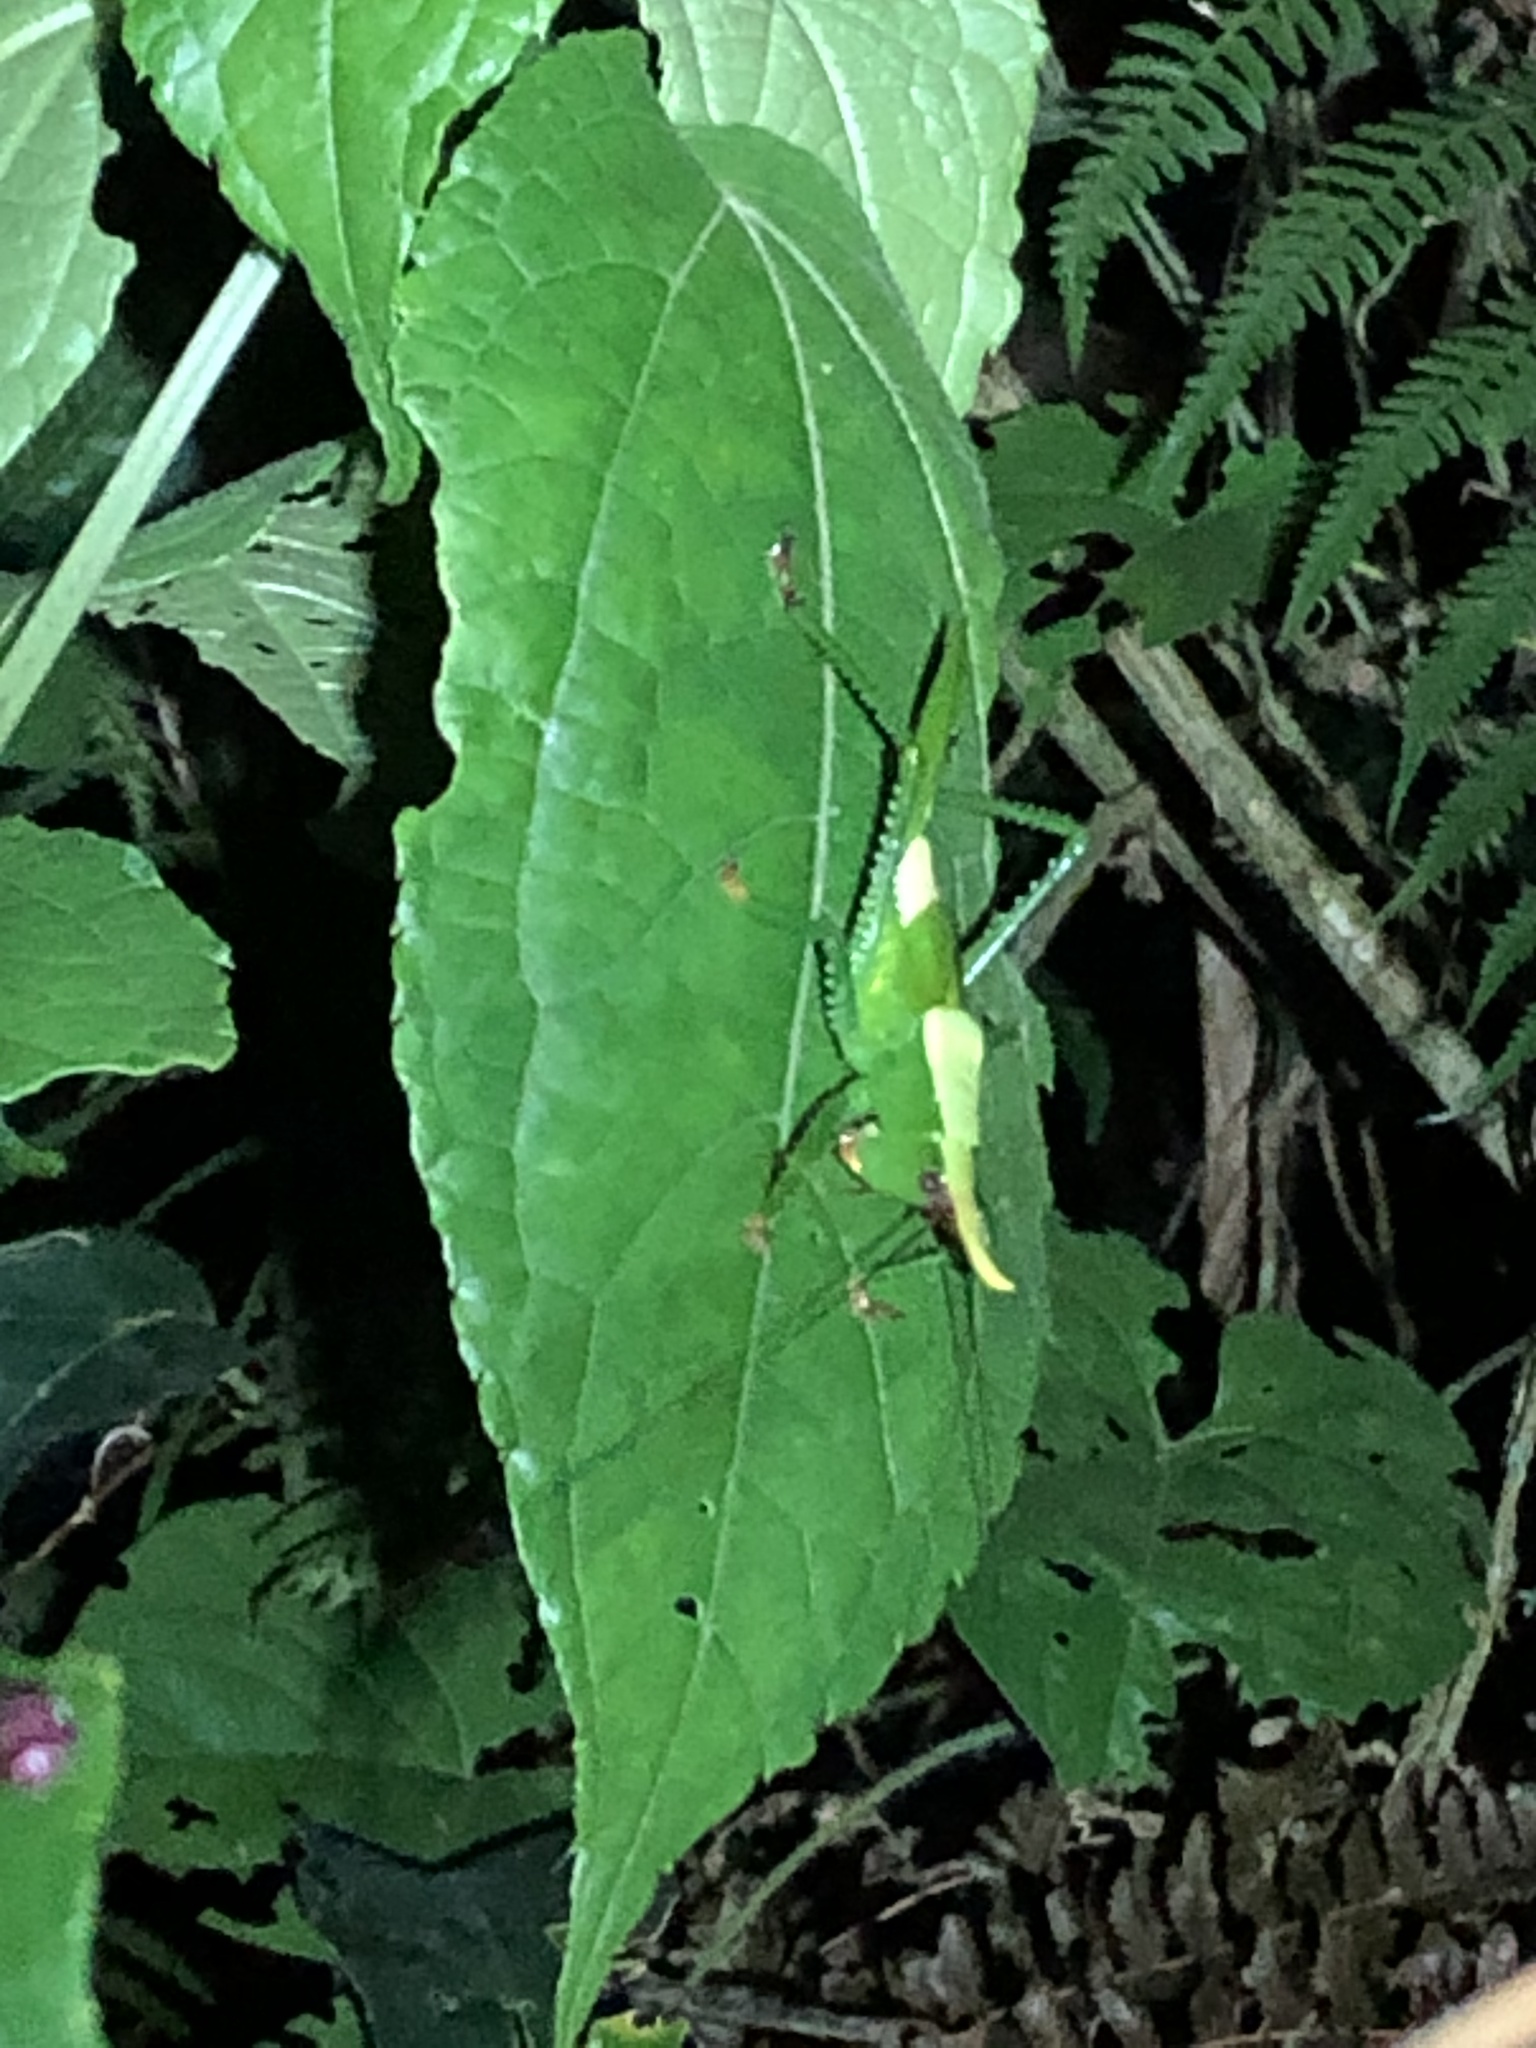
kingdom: Animalia
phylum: Arthropoda
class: Insecta
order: Orthoptera
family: Tettigoniidae
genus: Oxyprora
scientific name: Oxyprora curvirostris
